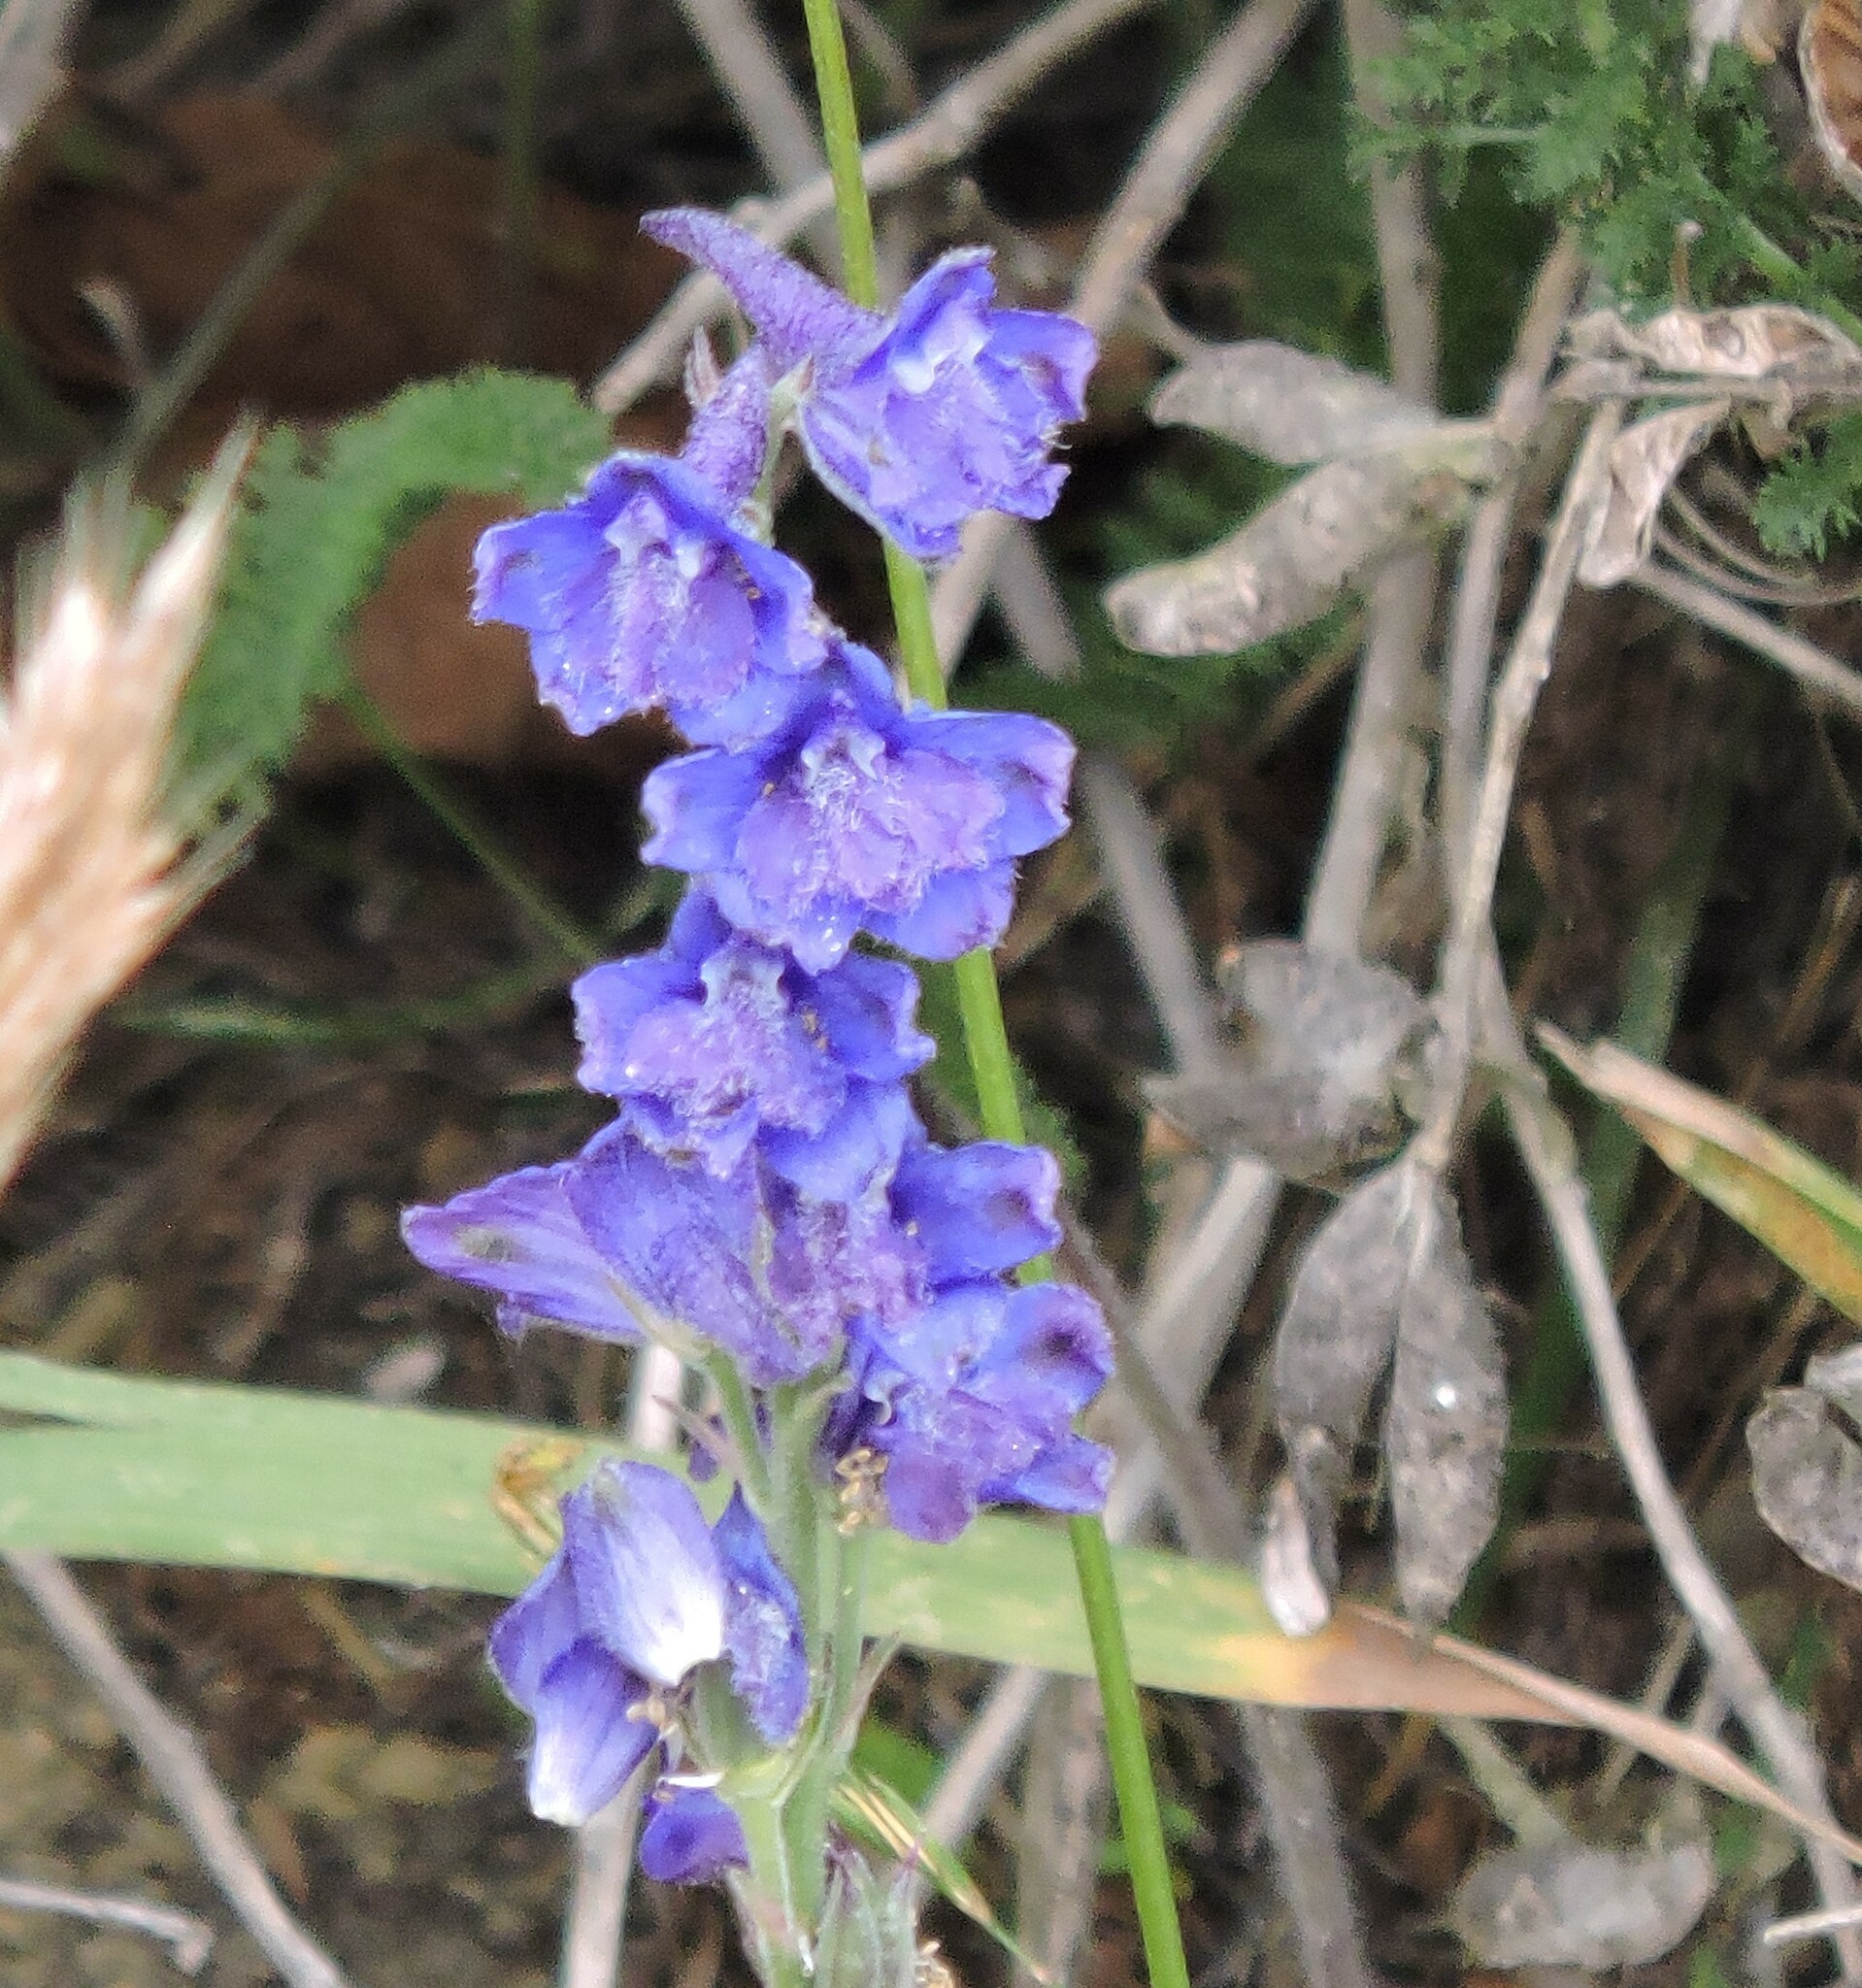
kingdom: Plantae
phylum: Tracheophyta
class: Magnoliopsida
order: Ranunculales
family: Ranunculaceae
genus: Delphinium
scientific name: Delphinium hesperium
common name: Western larkspur
